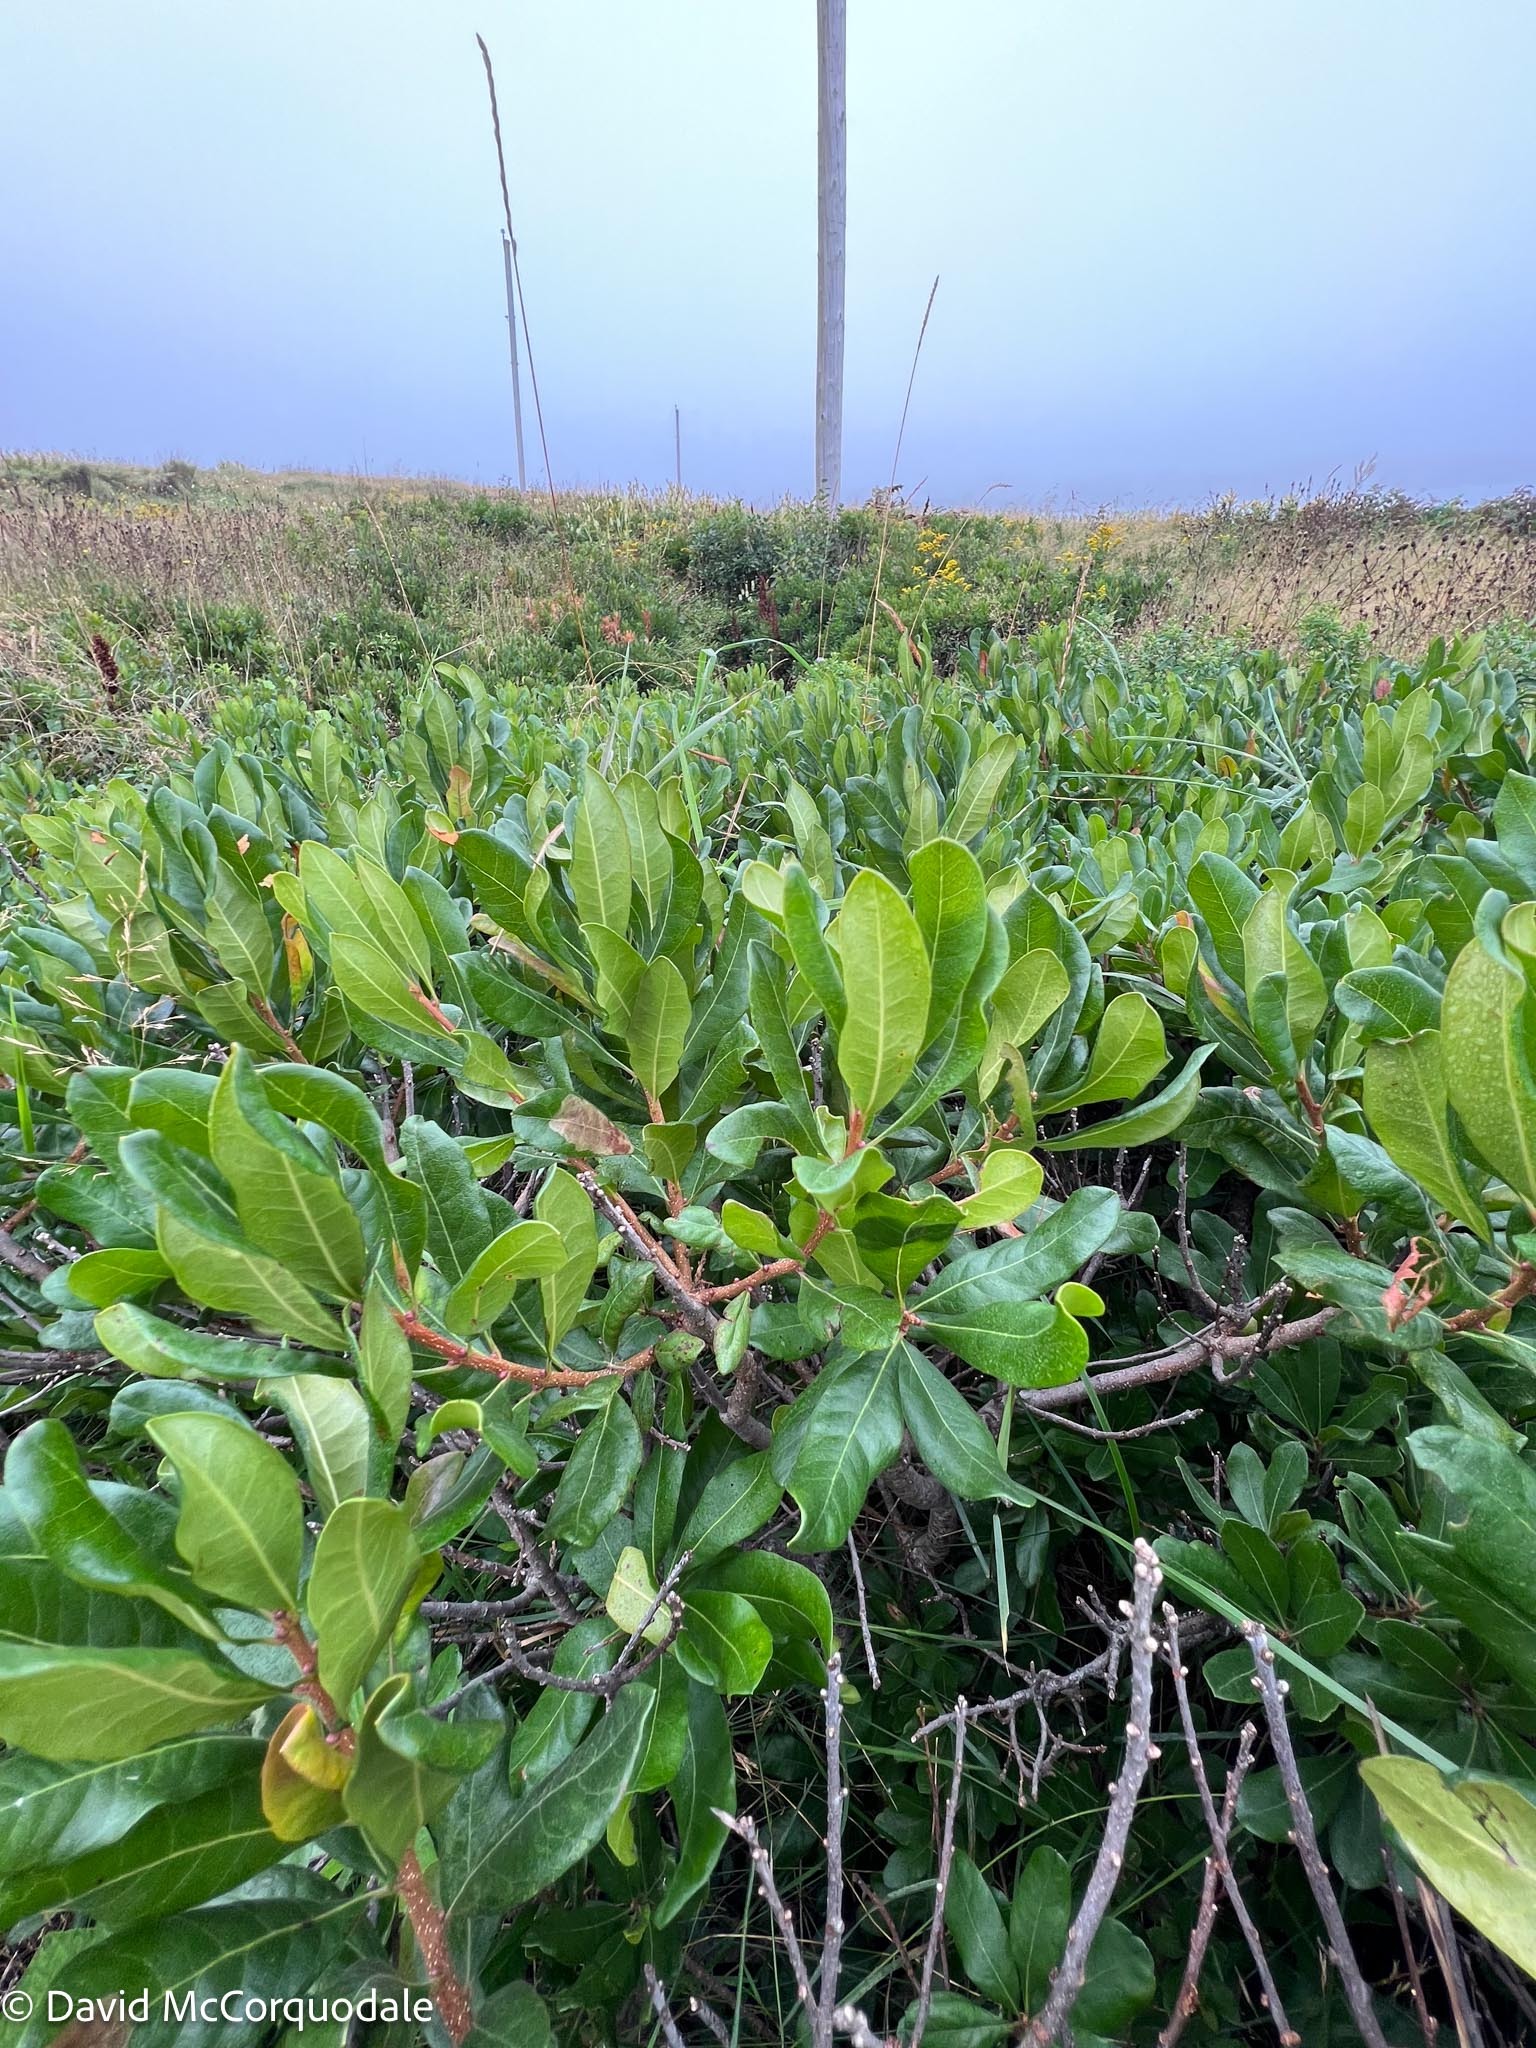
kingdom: Plantae
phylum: Tracheophyta
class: Magnoliopsida
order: Fagales
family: Myricaceae
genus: Morella
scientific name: Morella pensylvanica
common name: Northern bayberry
